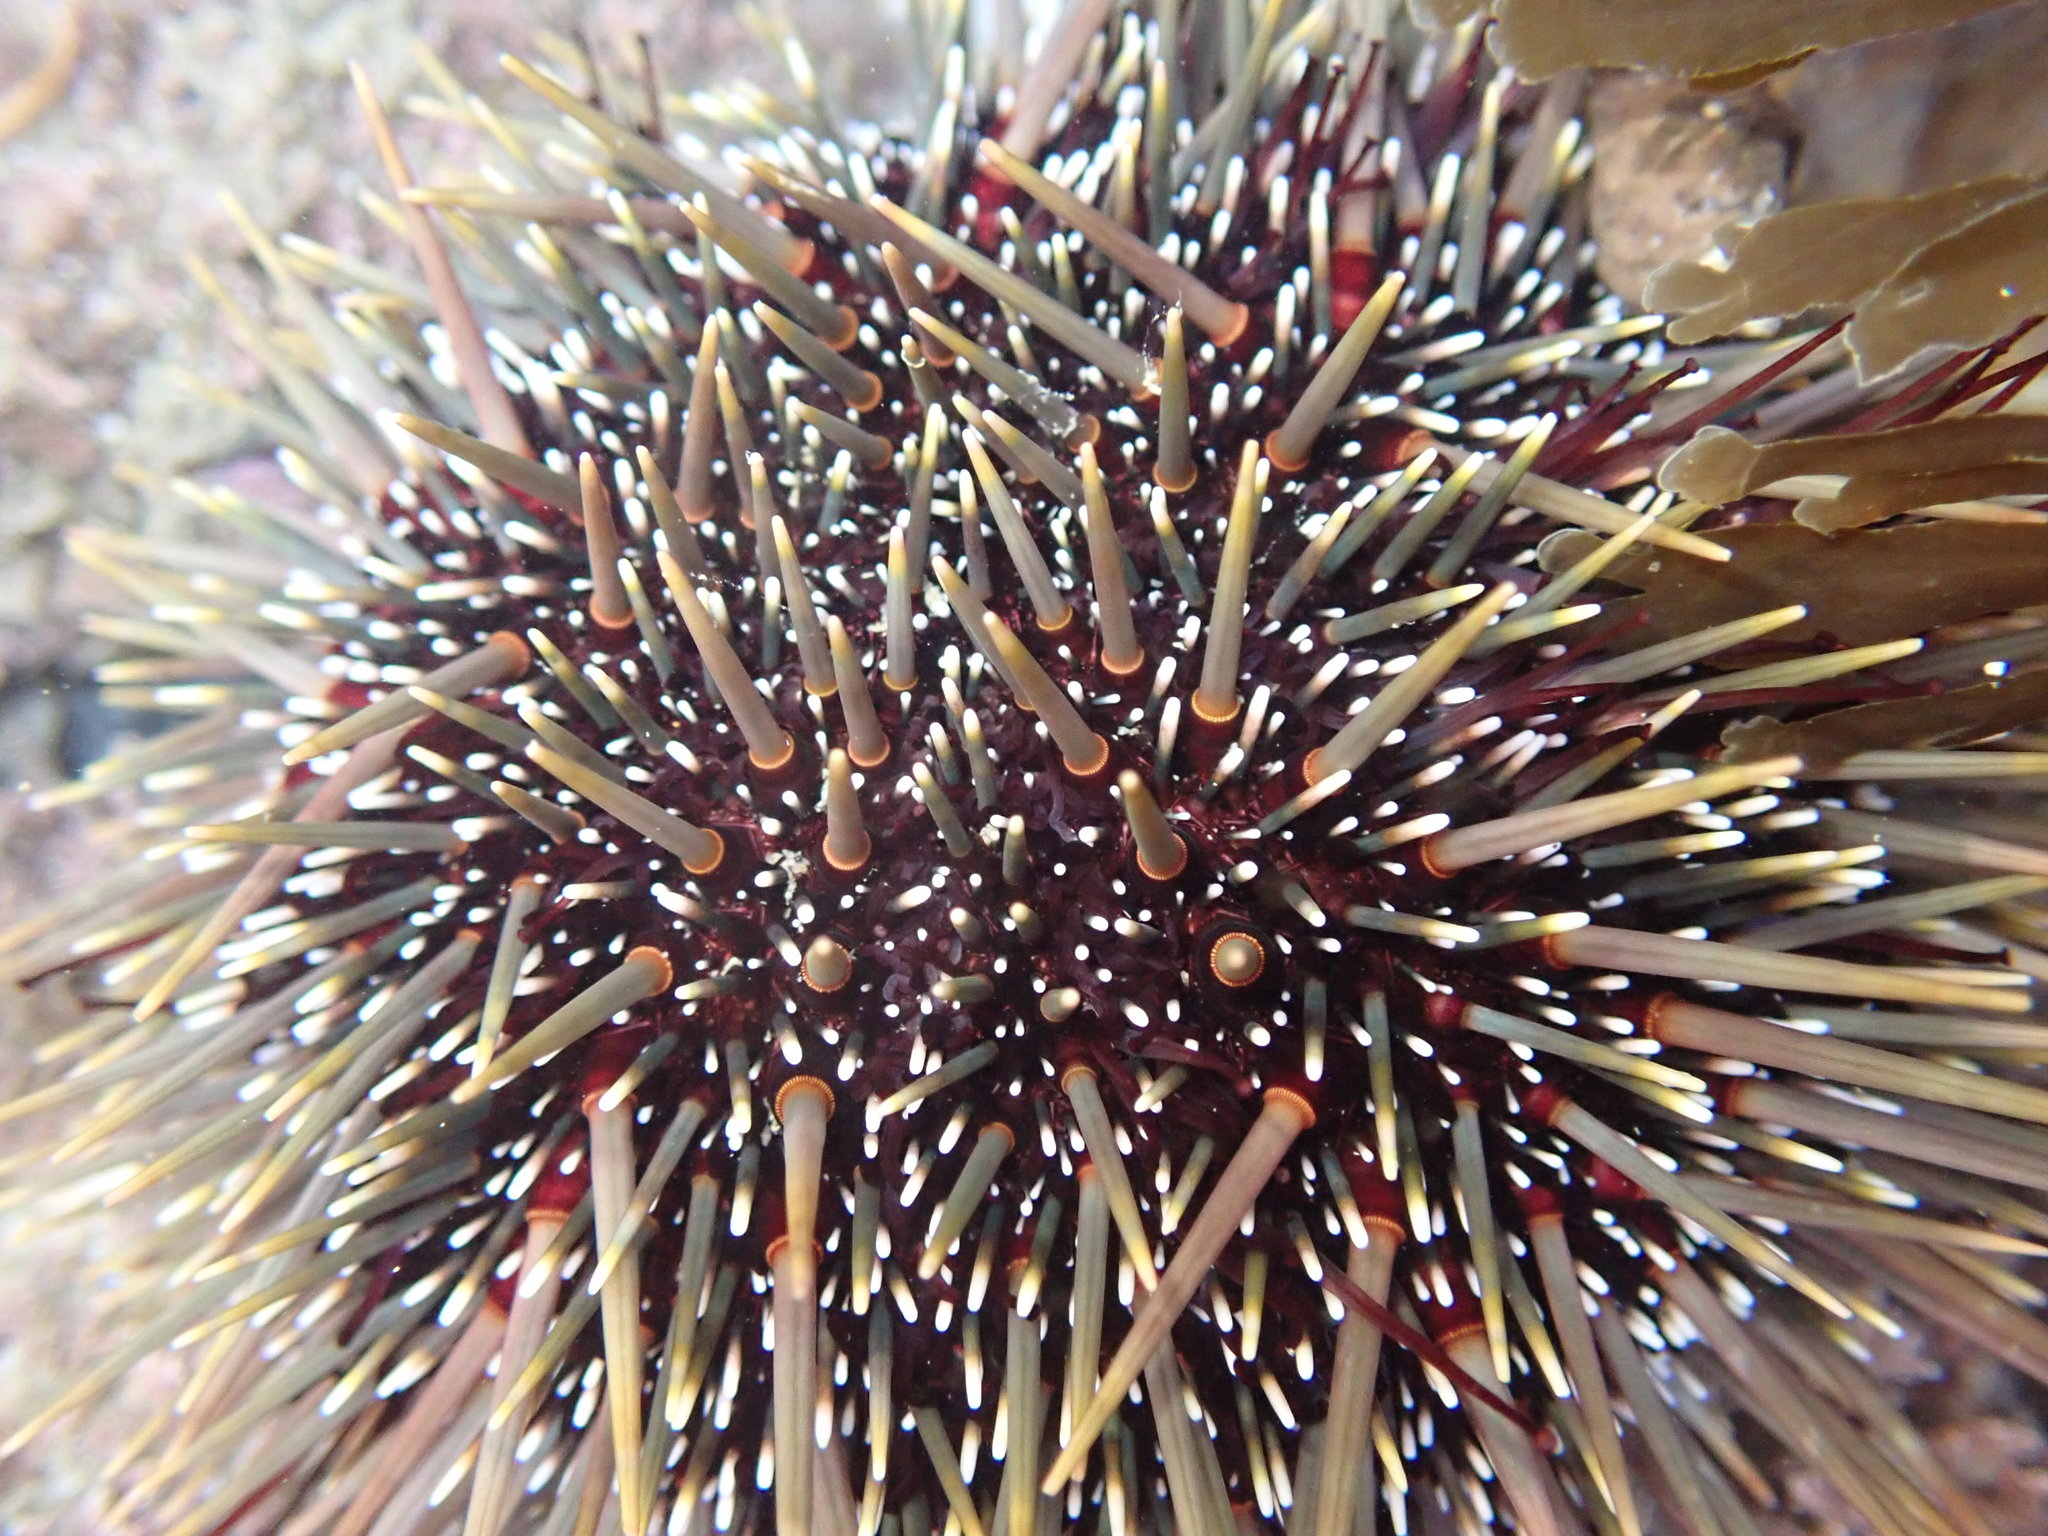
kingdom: Animalia
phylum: Echinodermata
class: Echinoidea
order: Camarodonta
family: Echinometridae
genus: Evechinus
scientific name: Evechinus chloroticus
